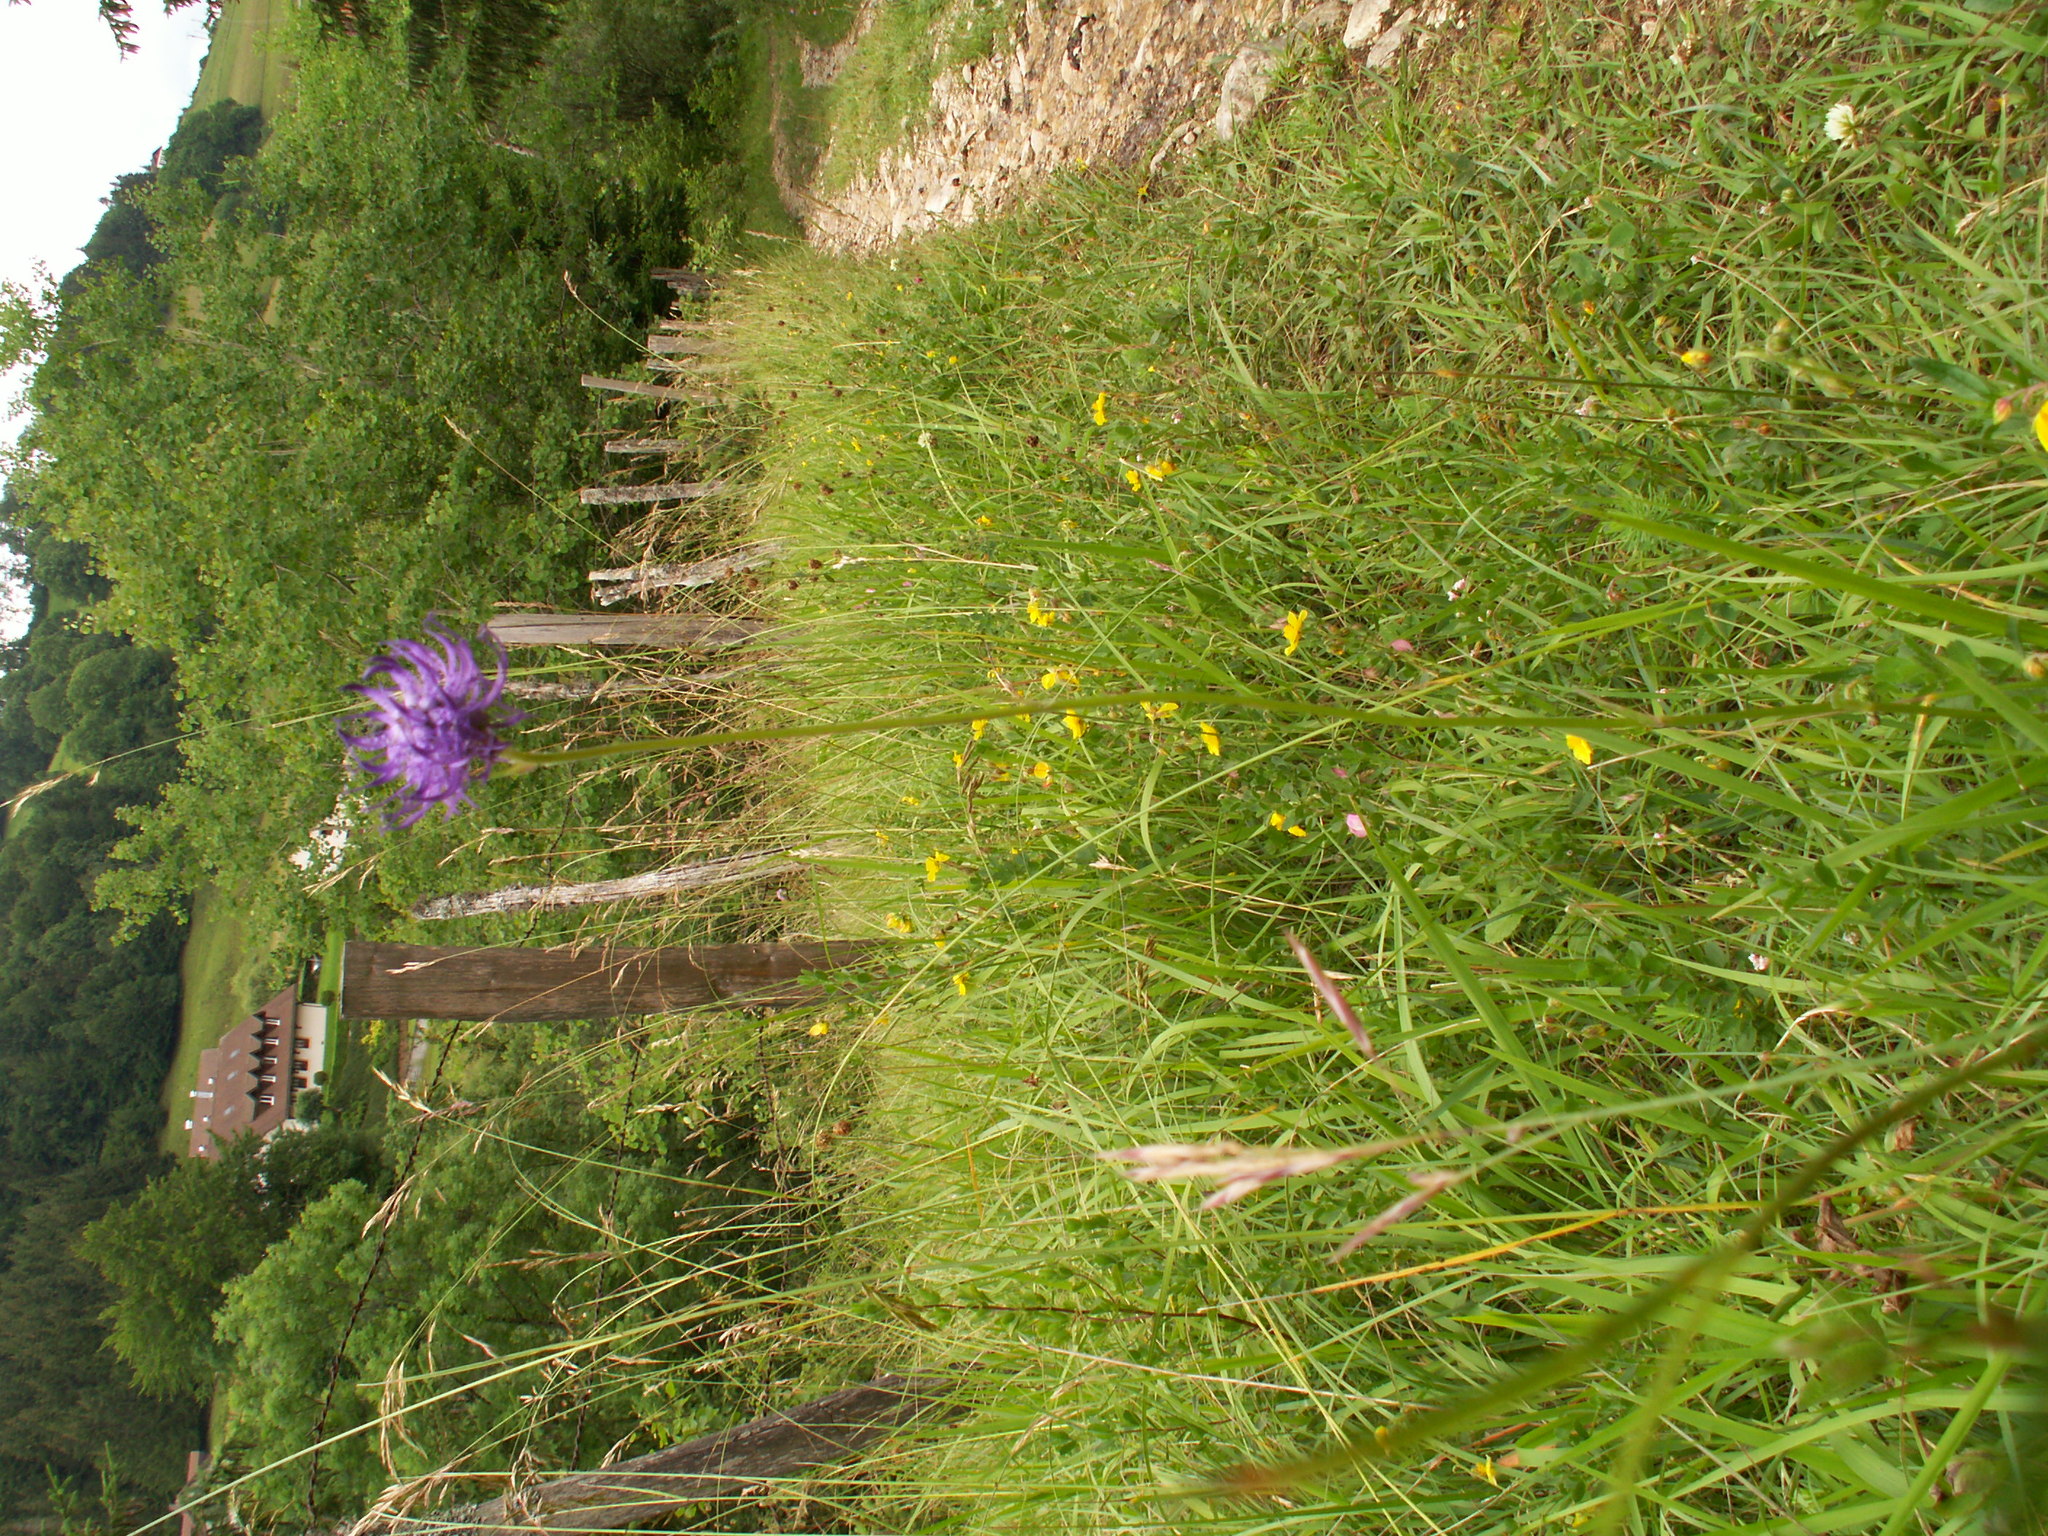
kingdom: Plantae
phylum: Tracheophyta
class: Magnoliopsida
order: Asterales
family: Campanulaceae
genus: Phyteuma
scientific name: Phyteuma orbiculare
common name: Round-headed rampion
